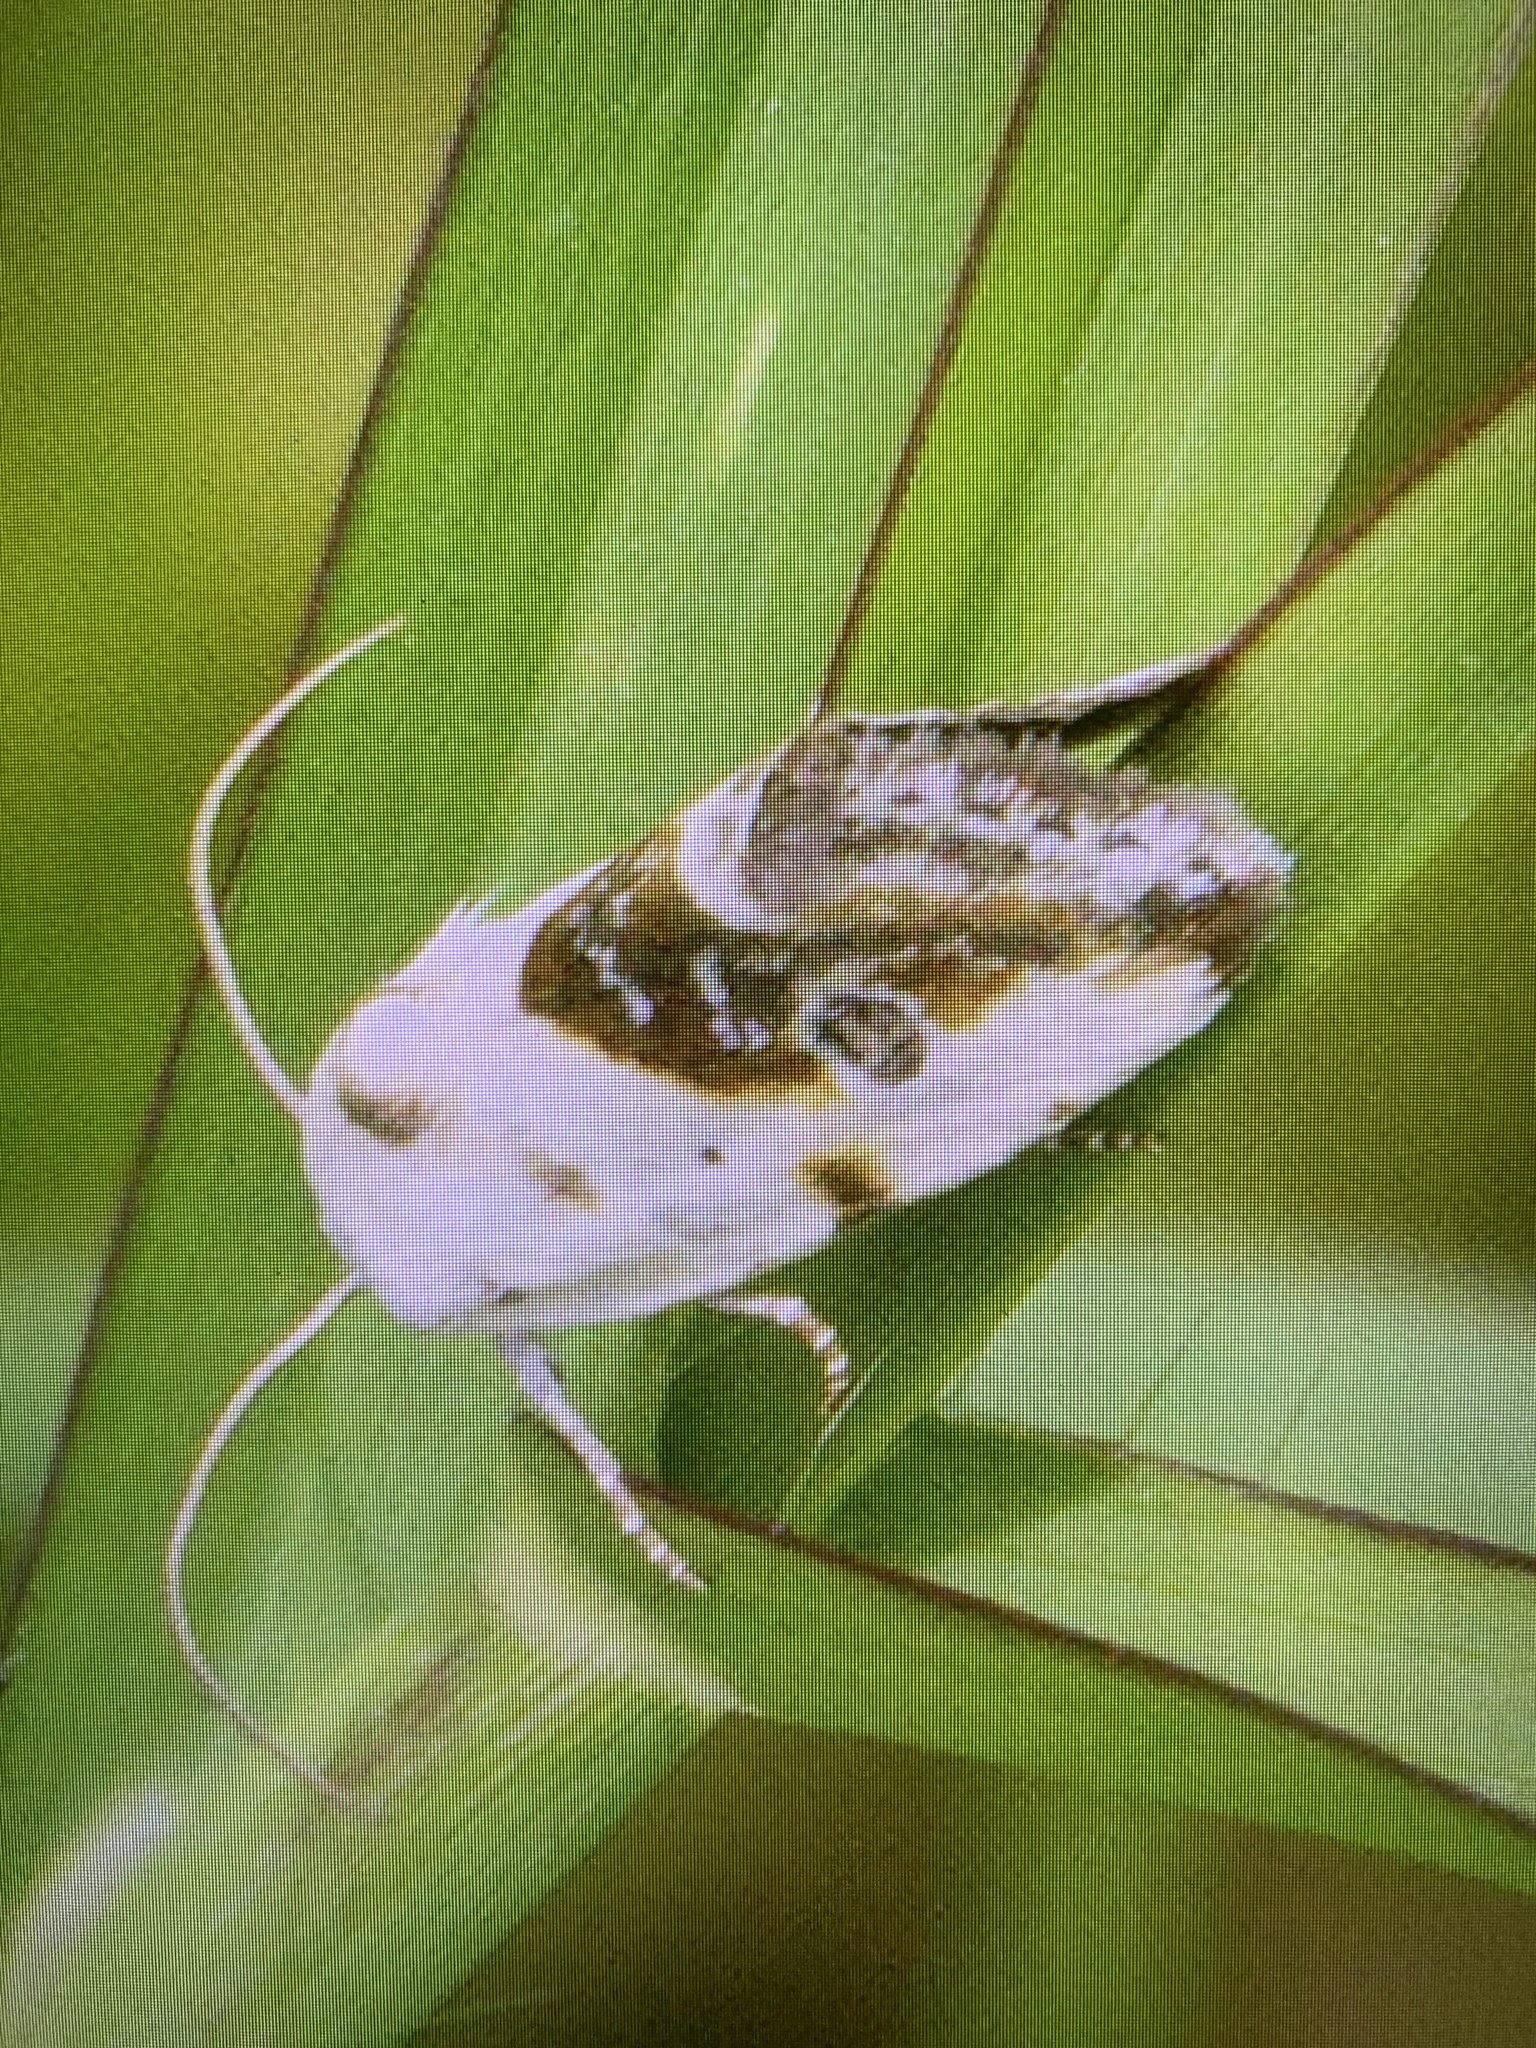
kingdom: Animalia
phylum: Arthropoda
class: Insecta
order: Lepidoptera
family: Noctuidae
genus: Acontia
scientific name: Acontia candefacta
